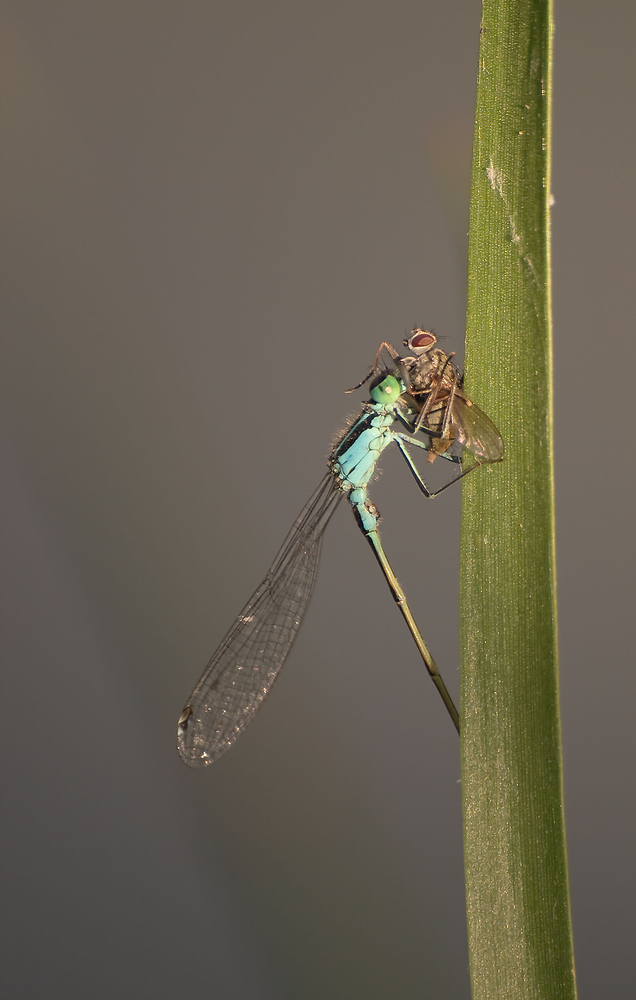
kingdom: Animalia
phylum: Arthropoda
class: Insecta
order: Odonata
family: Coenagrionidae
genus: Ischnura
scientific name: Ischnura elegans
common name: Blue-tailed damselfly
